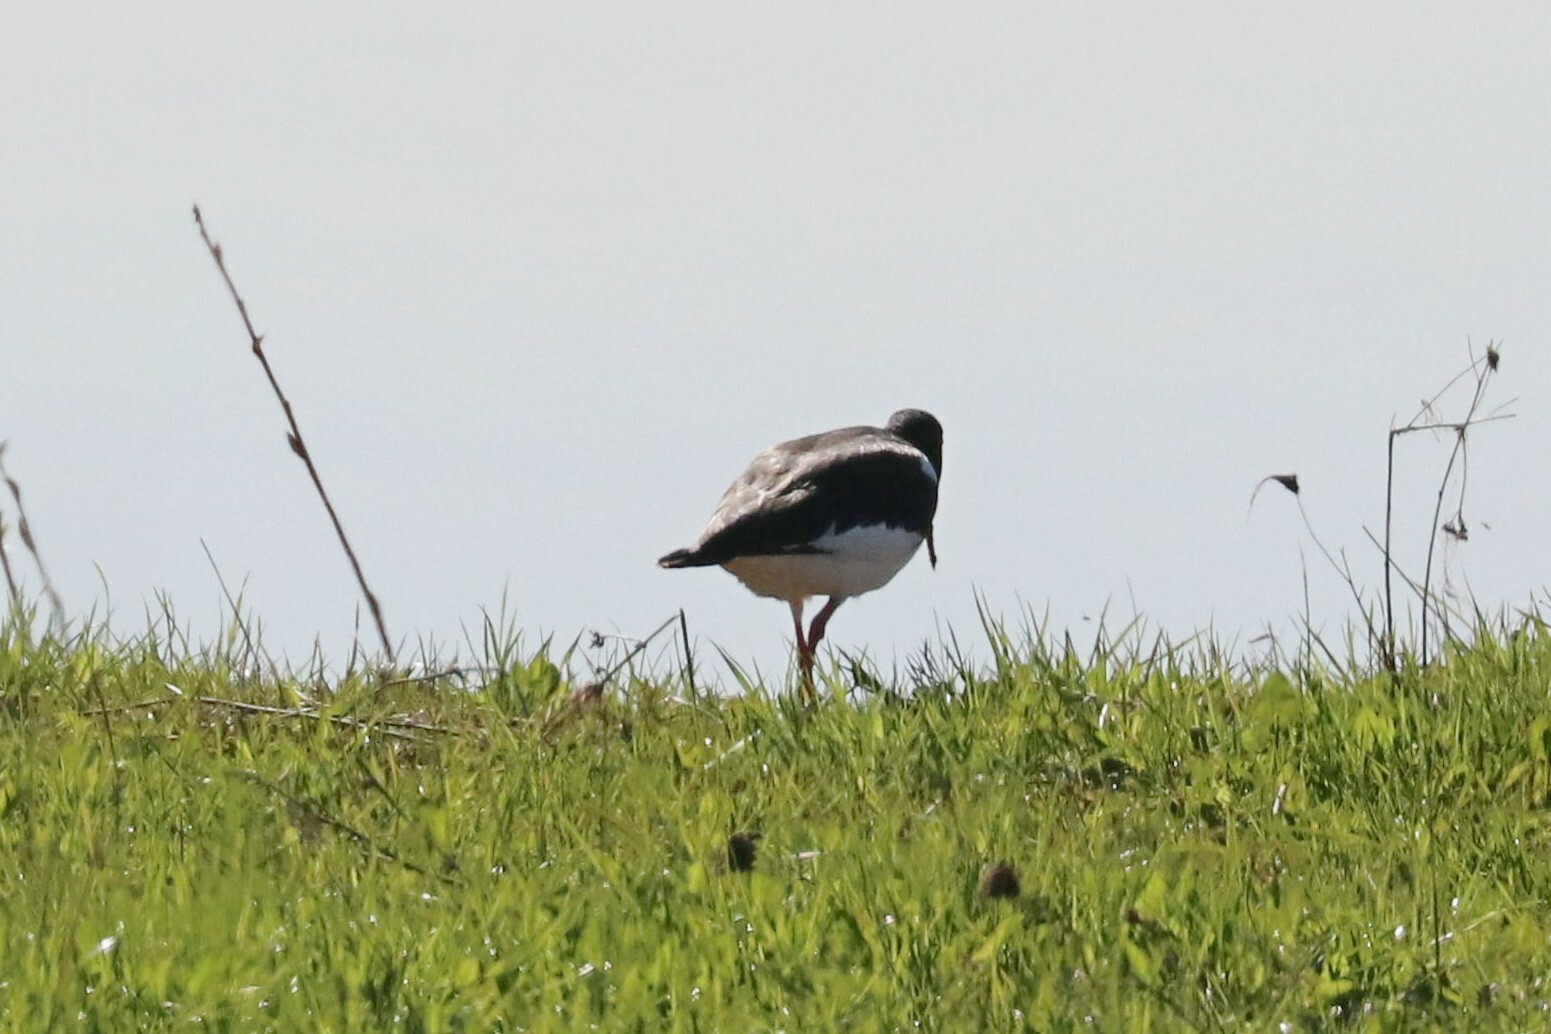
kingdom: Animalia
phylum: Chordata
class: Aves
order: Charadriiformes
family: Haematopodidae
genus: Haematopus
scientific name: Haematopus ostralegus
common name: Eurasian oystercatcher
